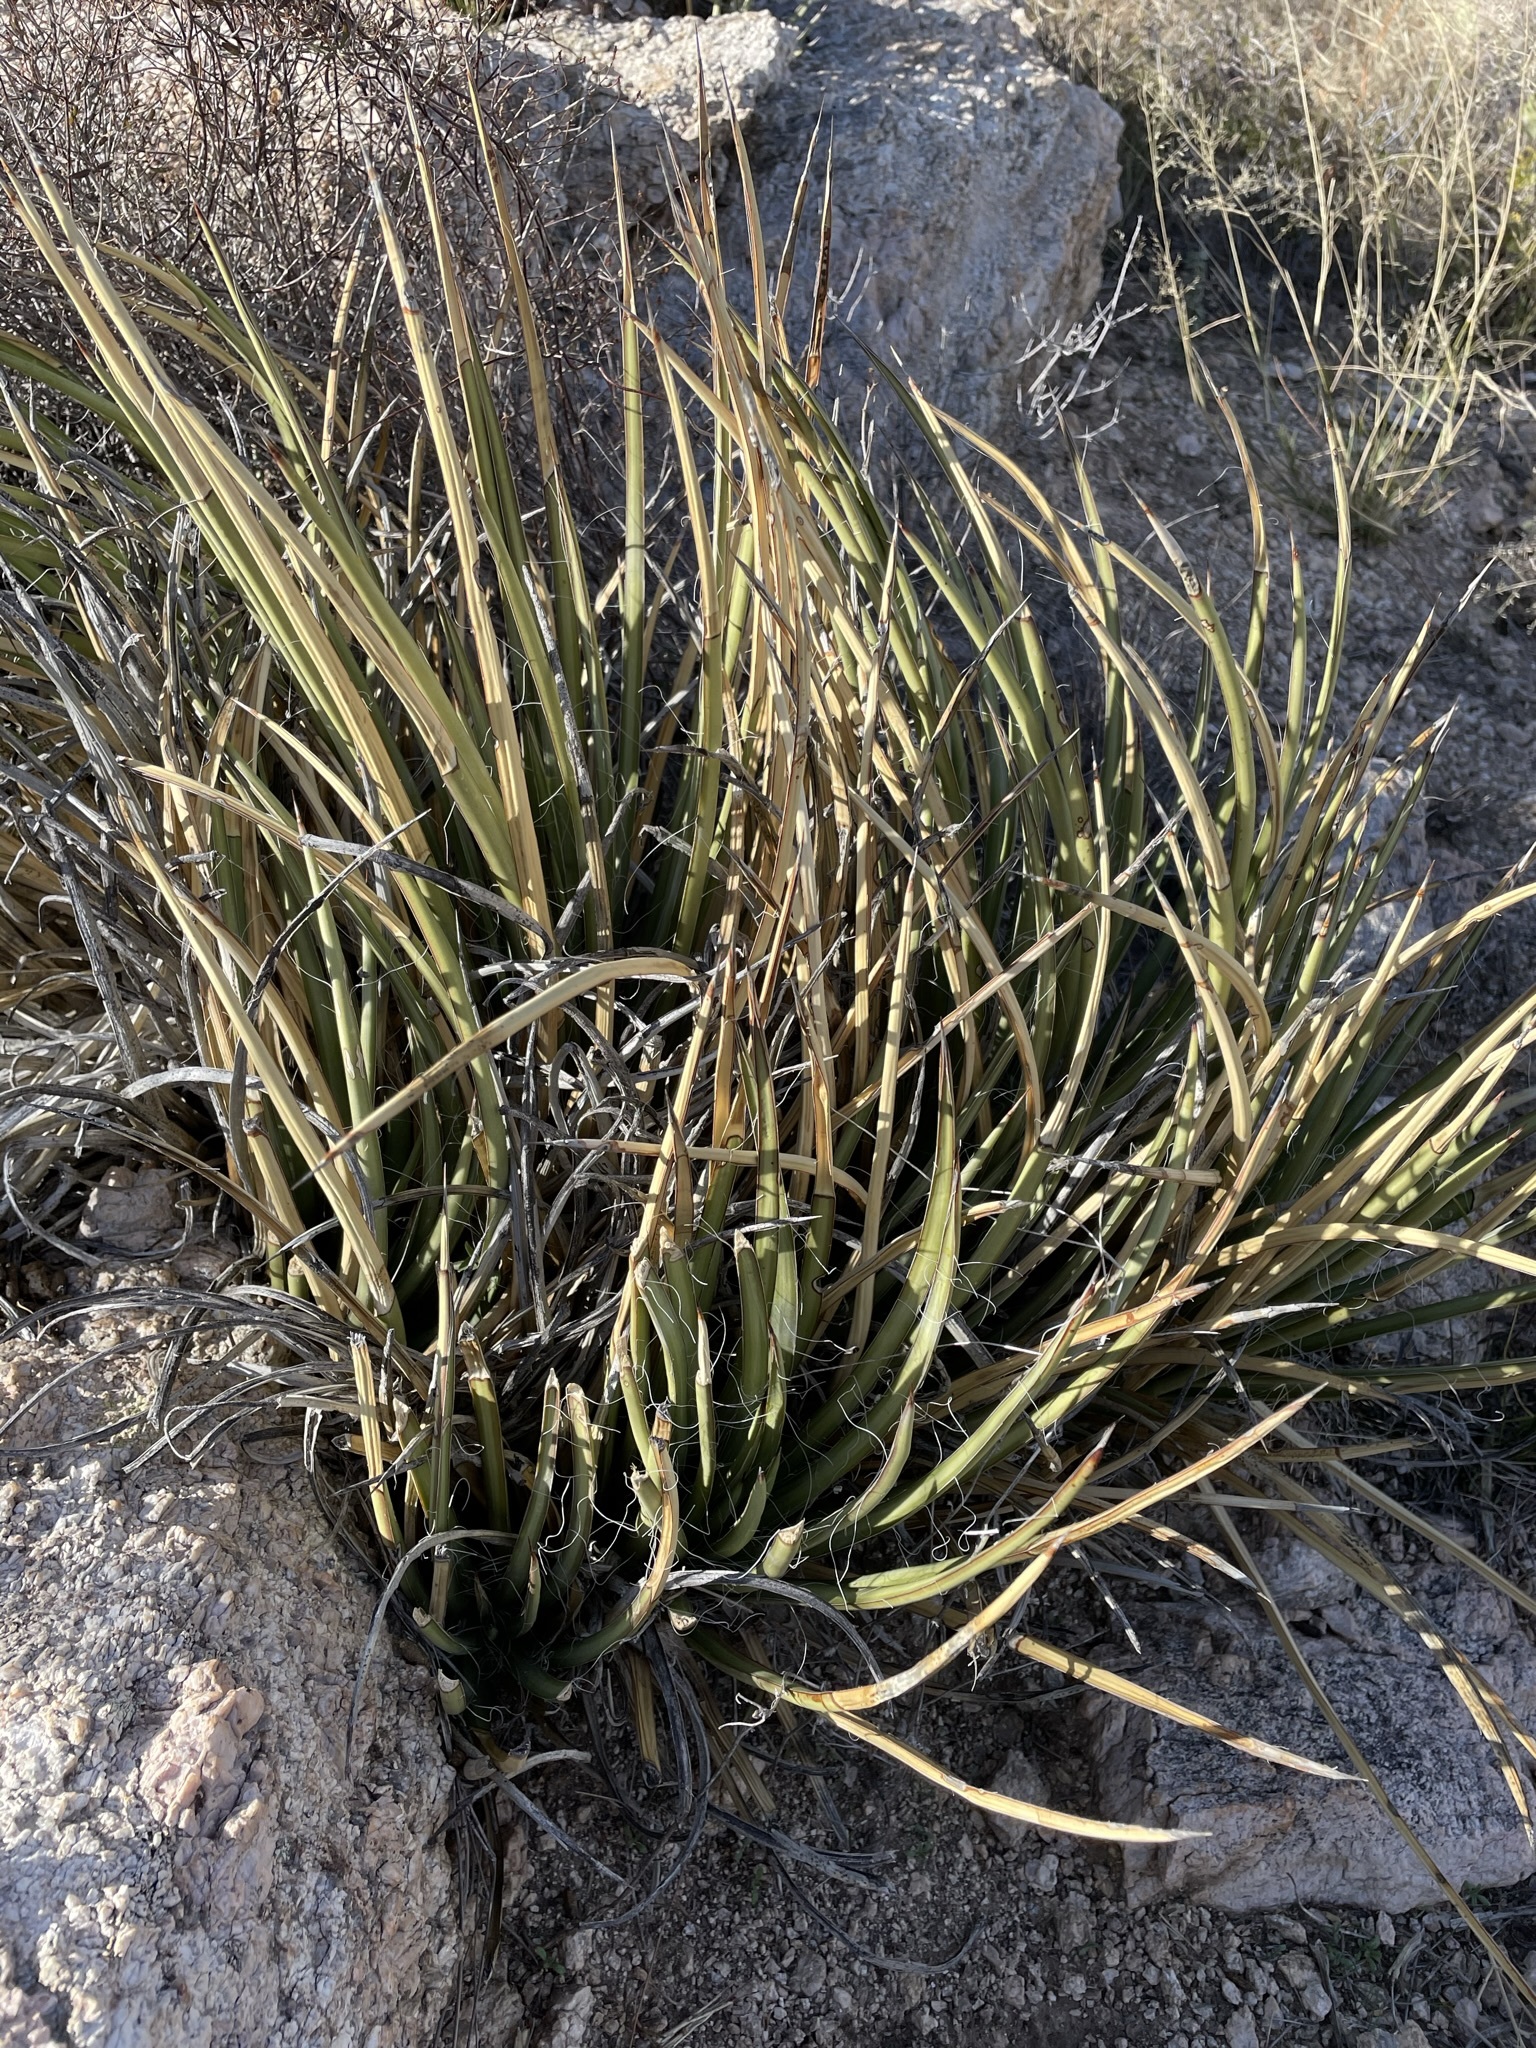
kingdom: Plantae
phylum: Tracheophyta
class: Liliopsida
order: Asparagales
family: Asparagaceae
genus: Agave
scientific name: Agave schottii
